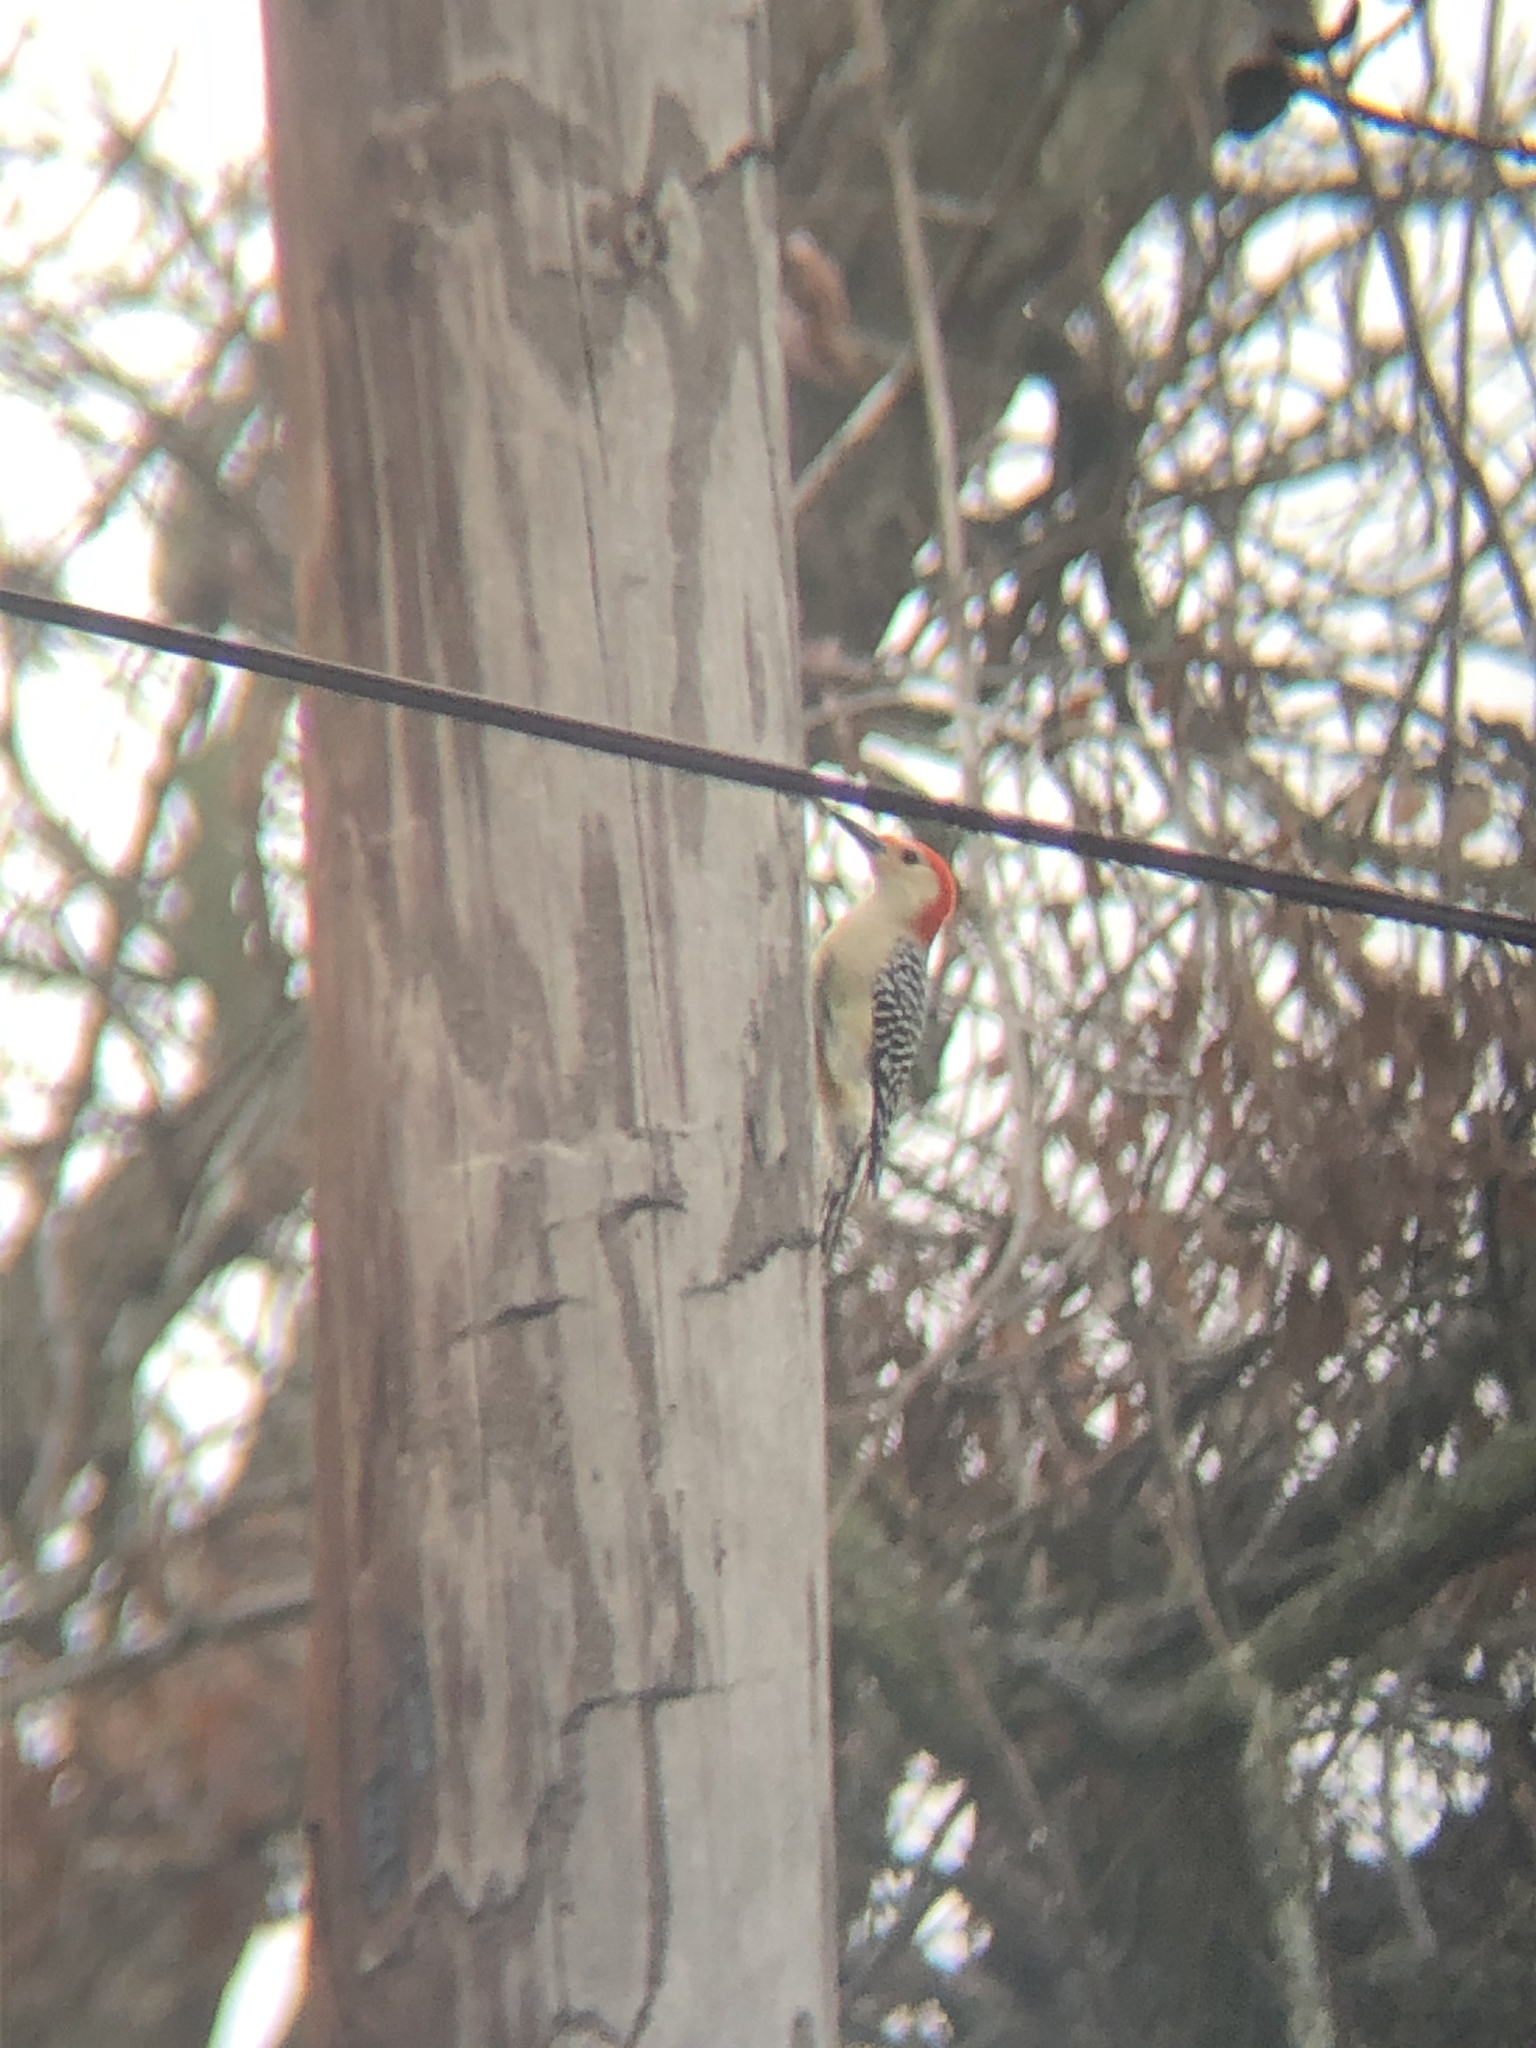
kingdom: Animalia
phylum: Chordata
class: Aves
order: Piciformes
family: Picidae
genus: Melanerpes
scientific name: Melanerpes carolinus
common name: Red-bellied woodpecker
